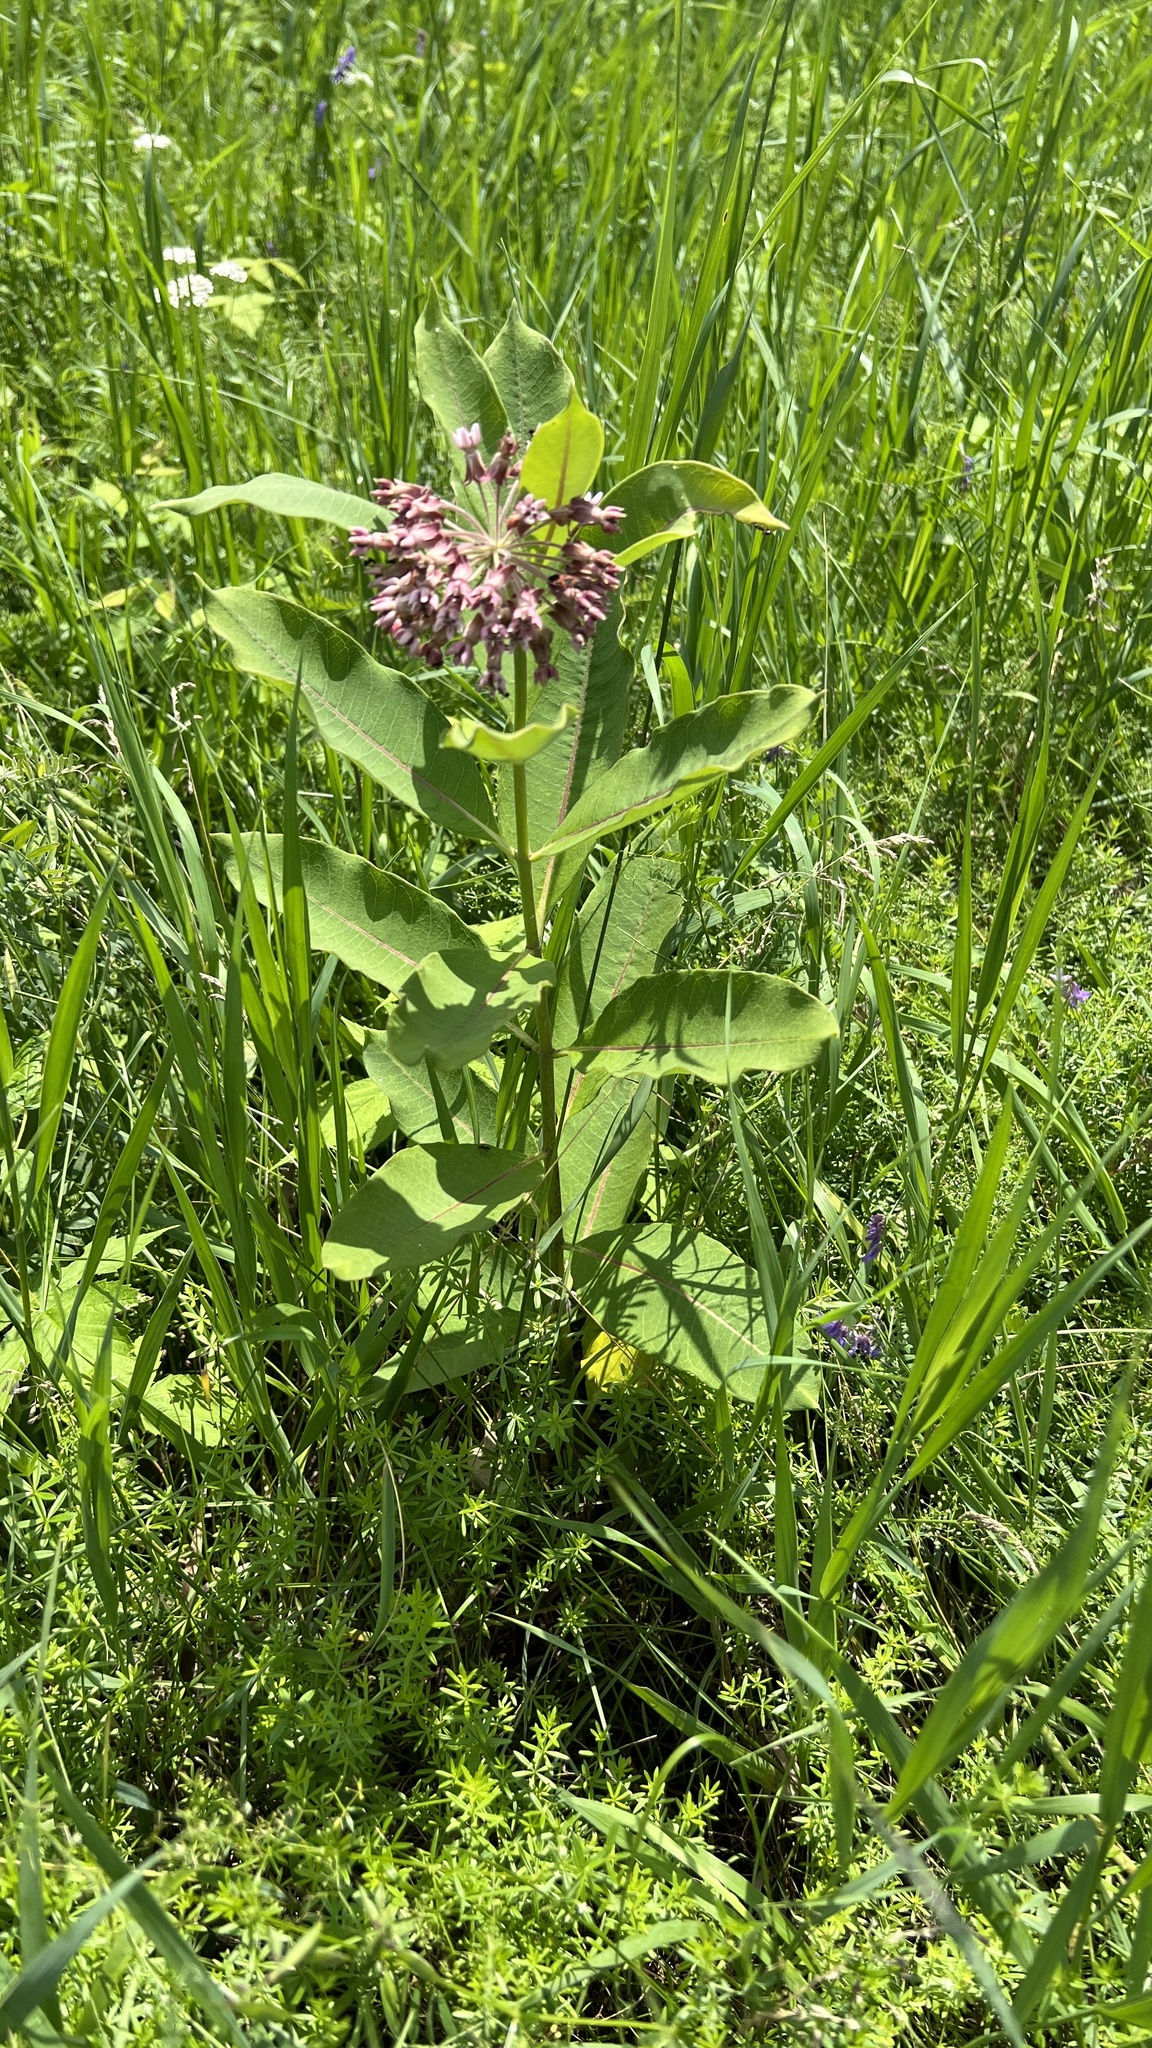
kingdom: Plantae
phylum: Tracheophyta
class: Magnoliopsida
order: Gentianales
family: Apocynaceae
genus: Asclepias
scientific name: Asclepias syriaca
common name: Common milkweed
